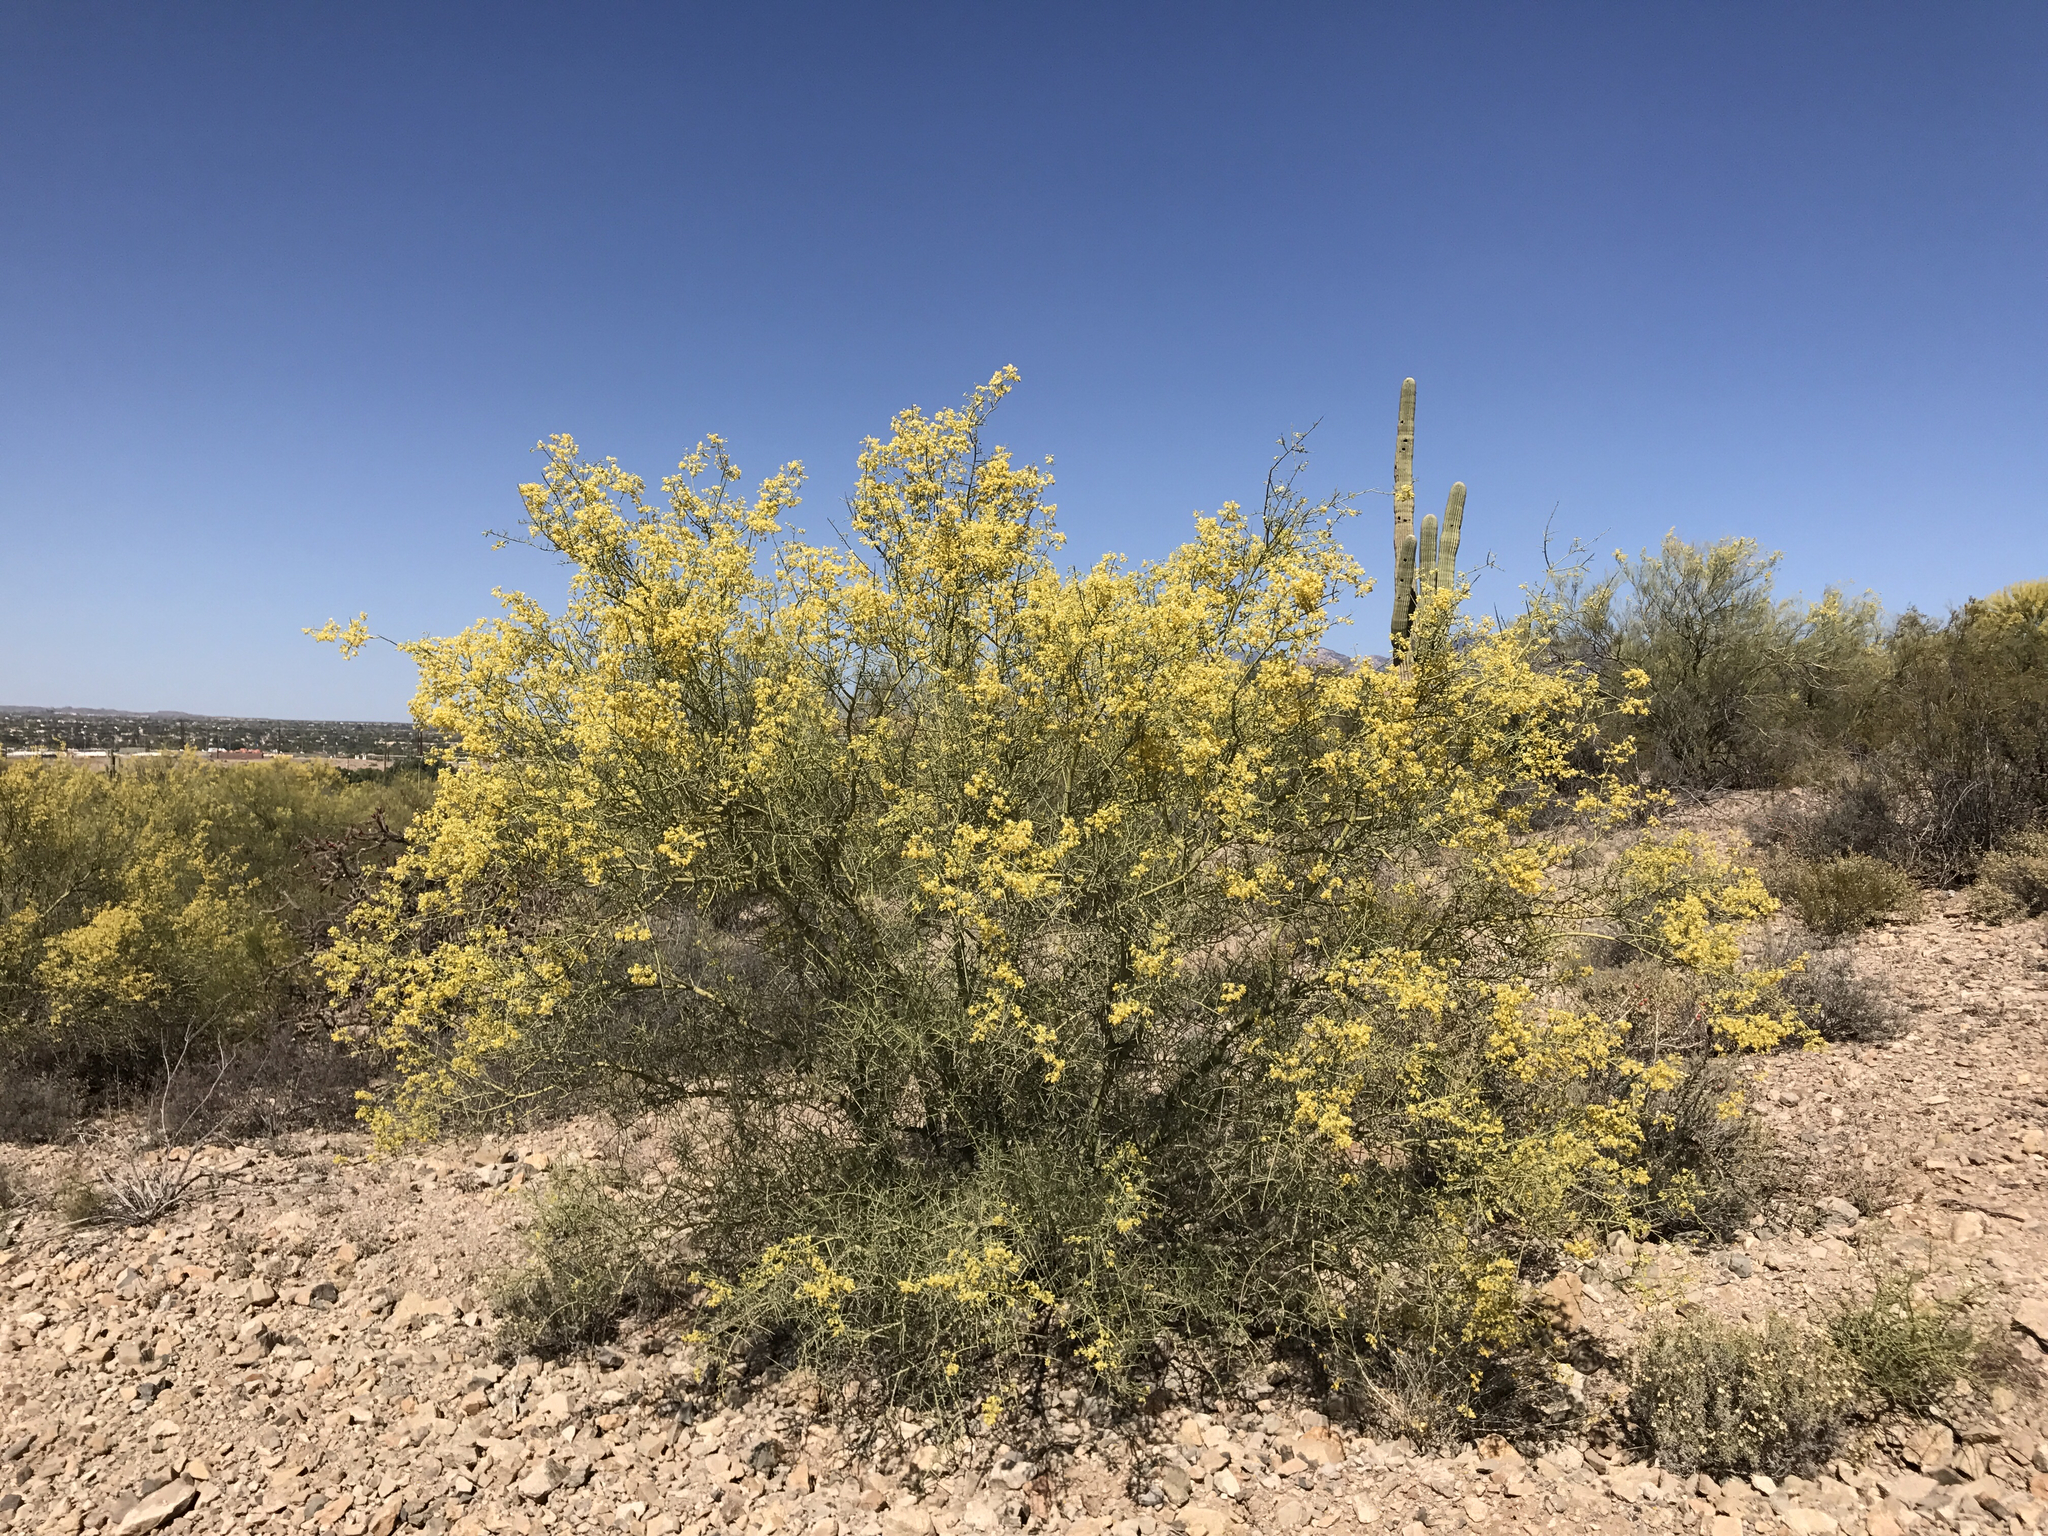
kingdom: Plantae
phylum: Tracheophyta
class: Magnoliopsida
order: Fabales
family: Fabaceae
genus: Parkinsonia
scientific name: Parkinsonia microphylla
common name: Yellow paloverde
